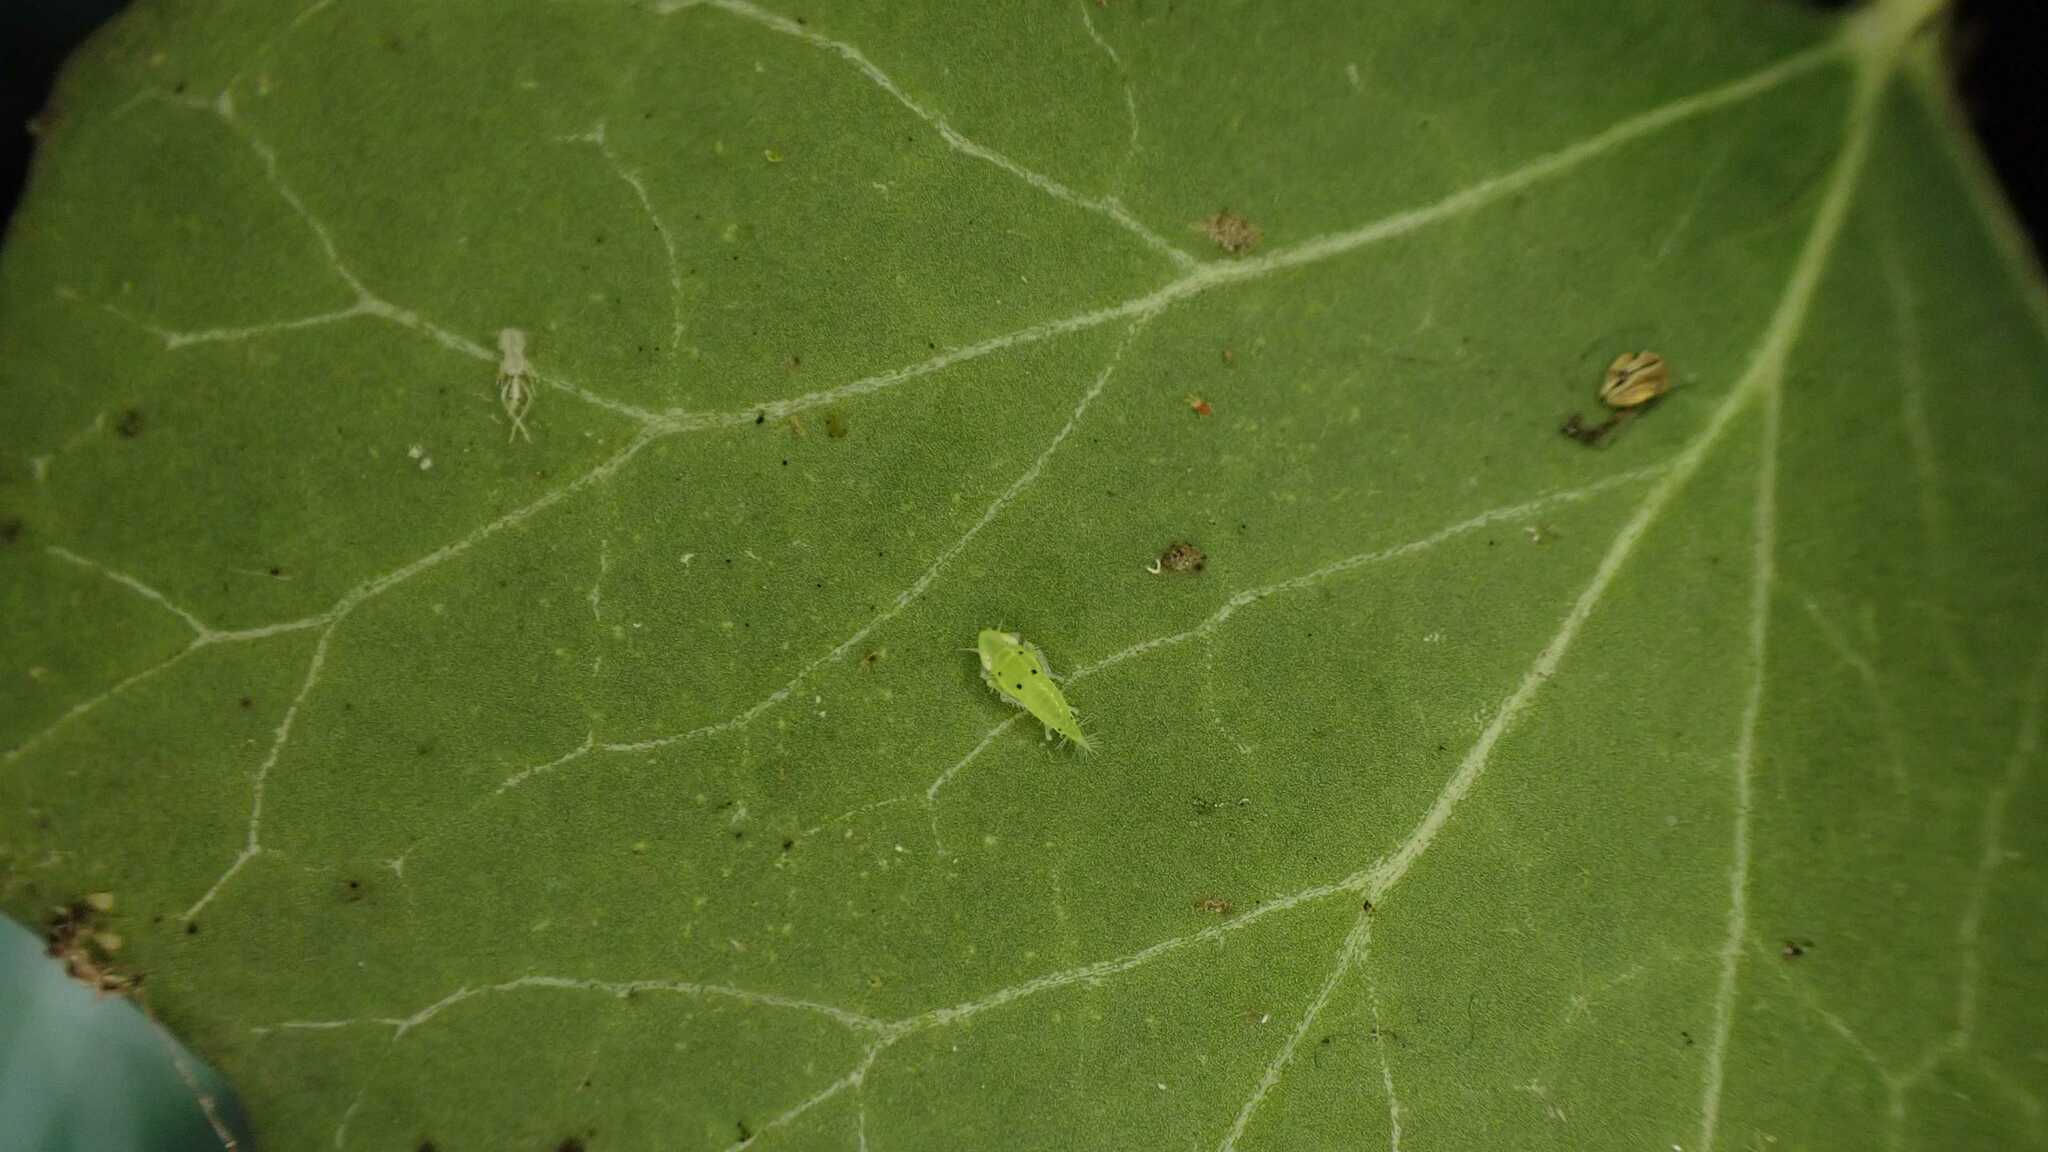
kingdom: Animalia
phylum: Arthropoda
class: Insecta
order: Hemiptera
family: Cicadellidae
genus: Synophropsis
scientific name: Synophropsis lauri
